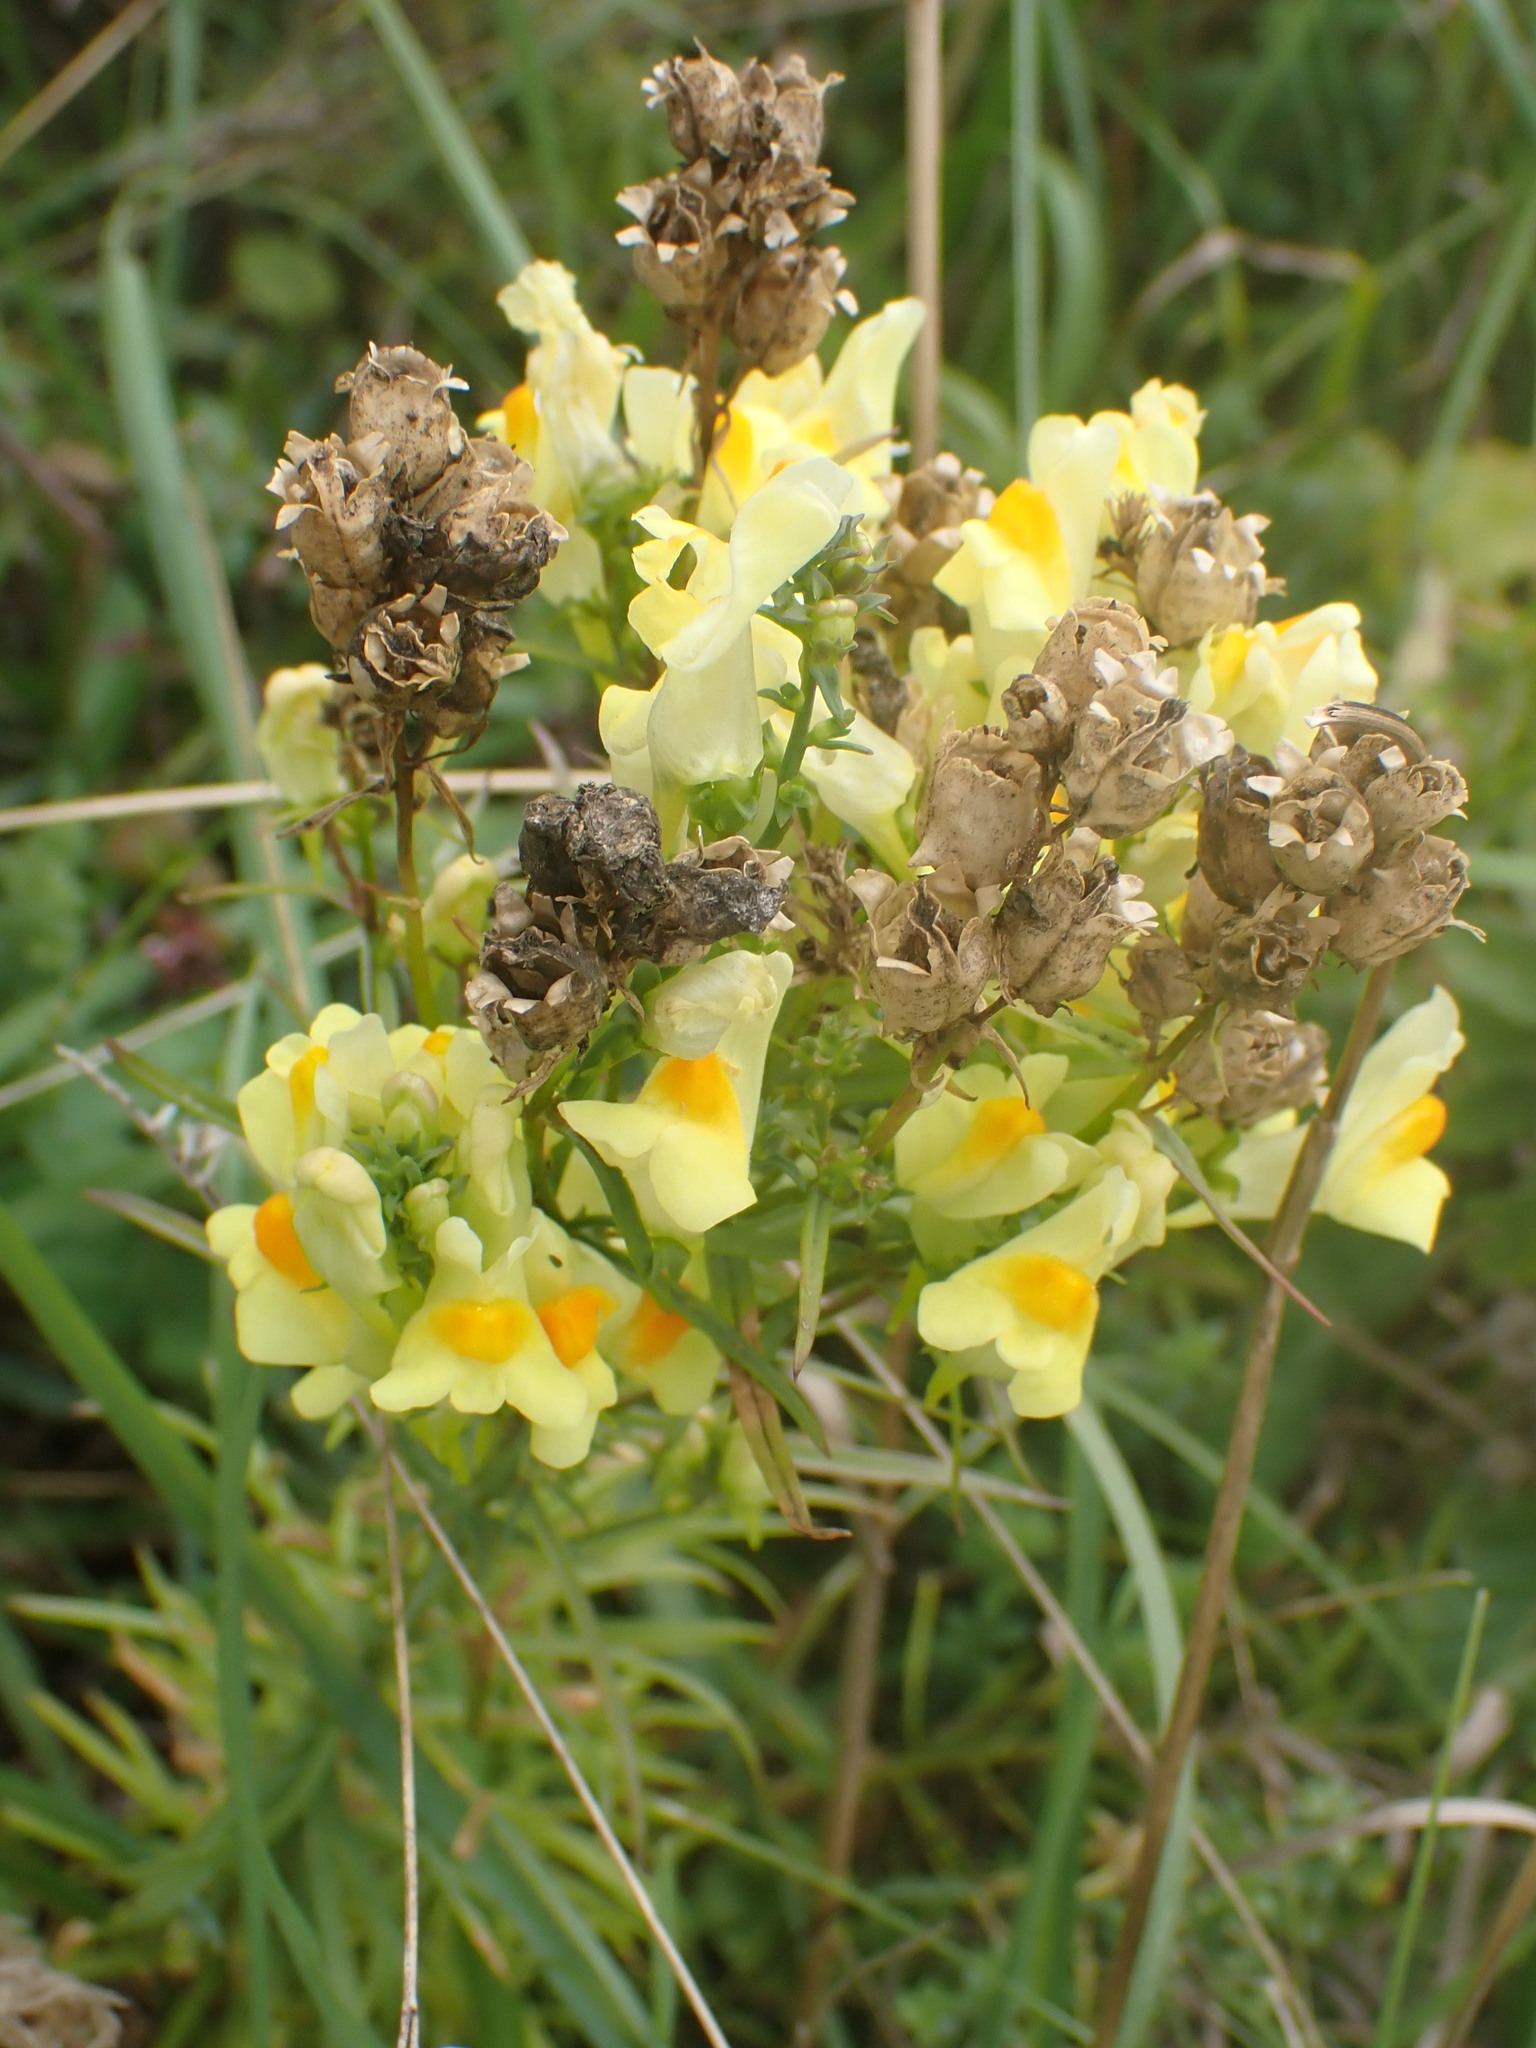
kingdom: Plantae
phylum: Tracheophyta
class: Magnoliopsida
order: Lamiales
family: Plantaginaceae
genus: Linaria
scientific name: Linaria vulgaris
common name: Butter and eggs
